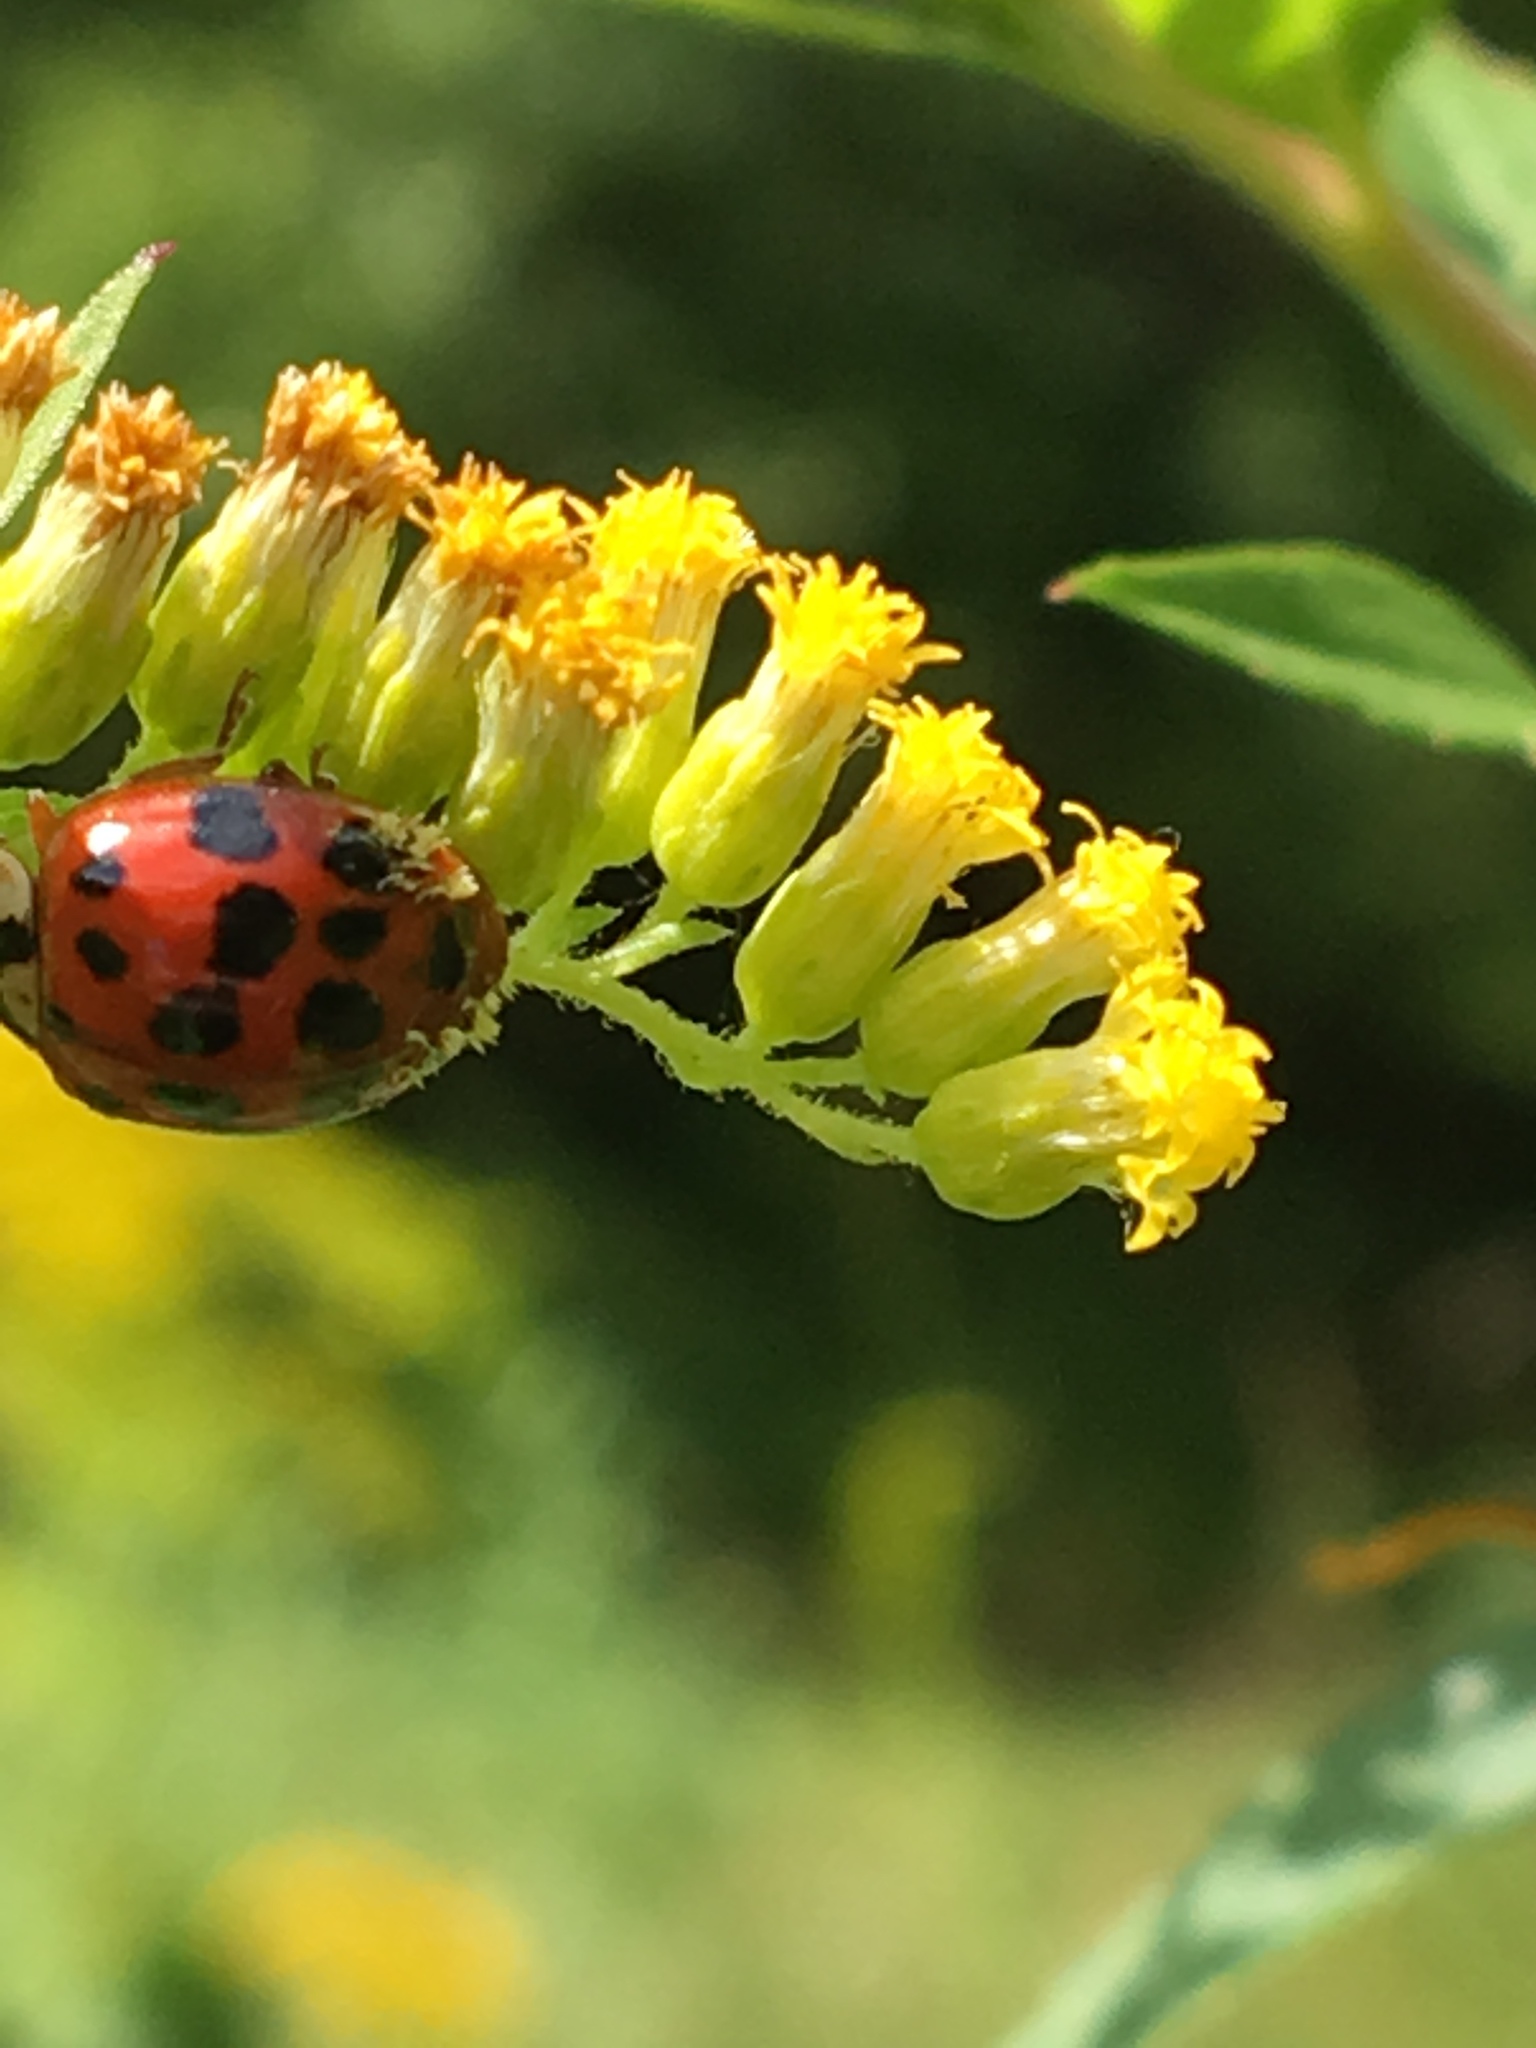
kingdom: Animalia
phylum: Arthropoda
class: Insecta
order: Coleoptera
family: Coccinellidae
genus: Harmonia
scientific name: Harmonia axyridis
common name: Harlequin ladybird
